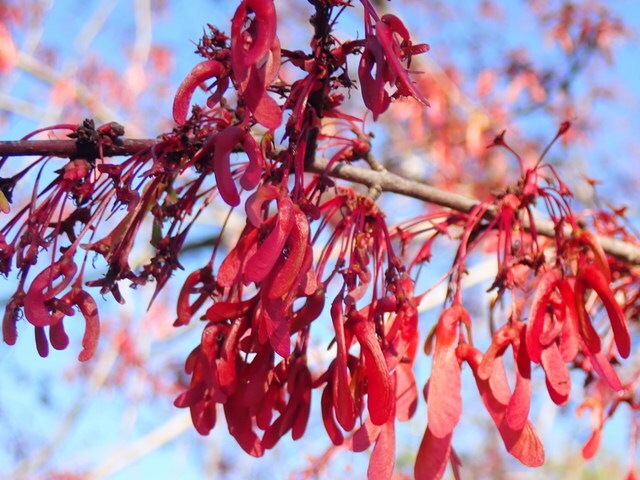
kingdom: Plantae
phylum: Tracheophyta
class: Magnoliopsida
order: Sapindales
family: Sapindaceae
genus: Acer
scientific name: Acer rubrum
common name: Red maple
